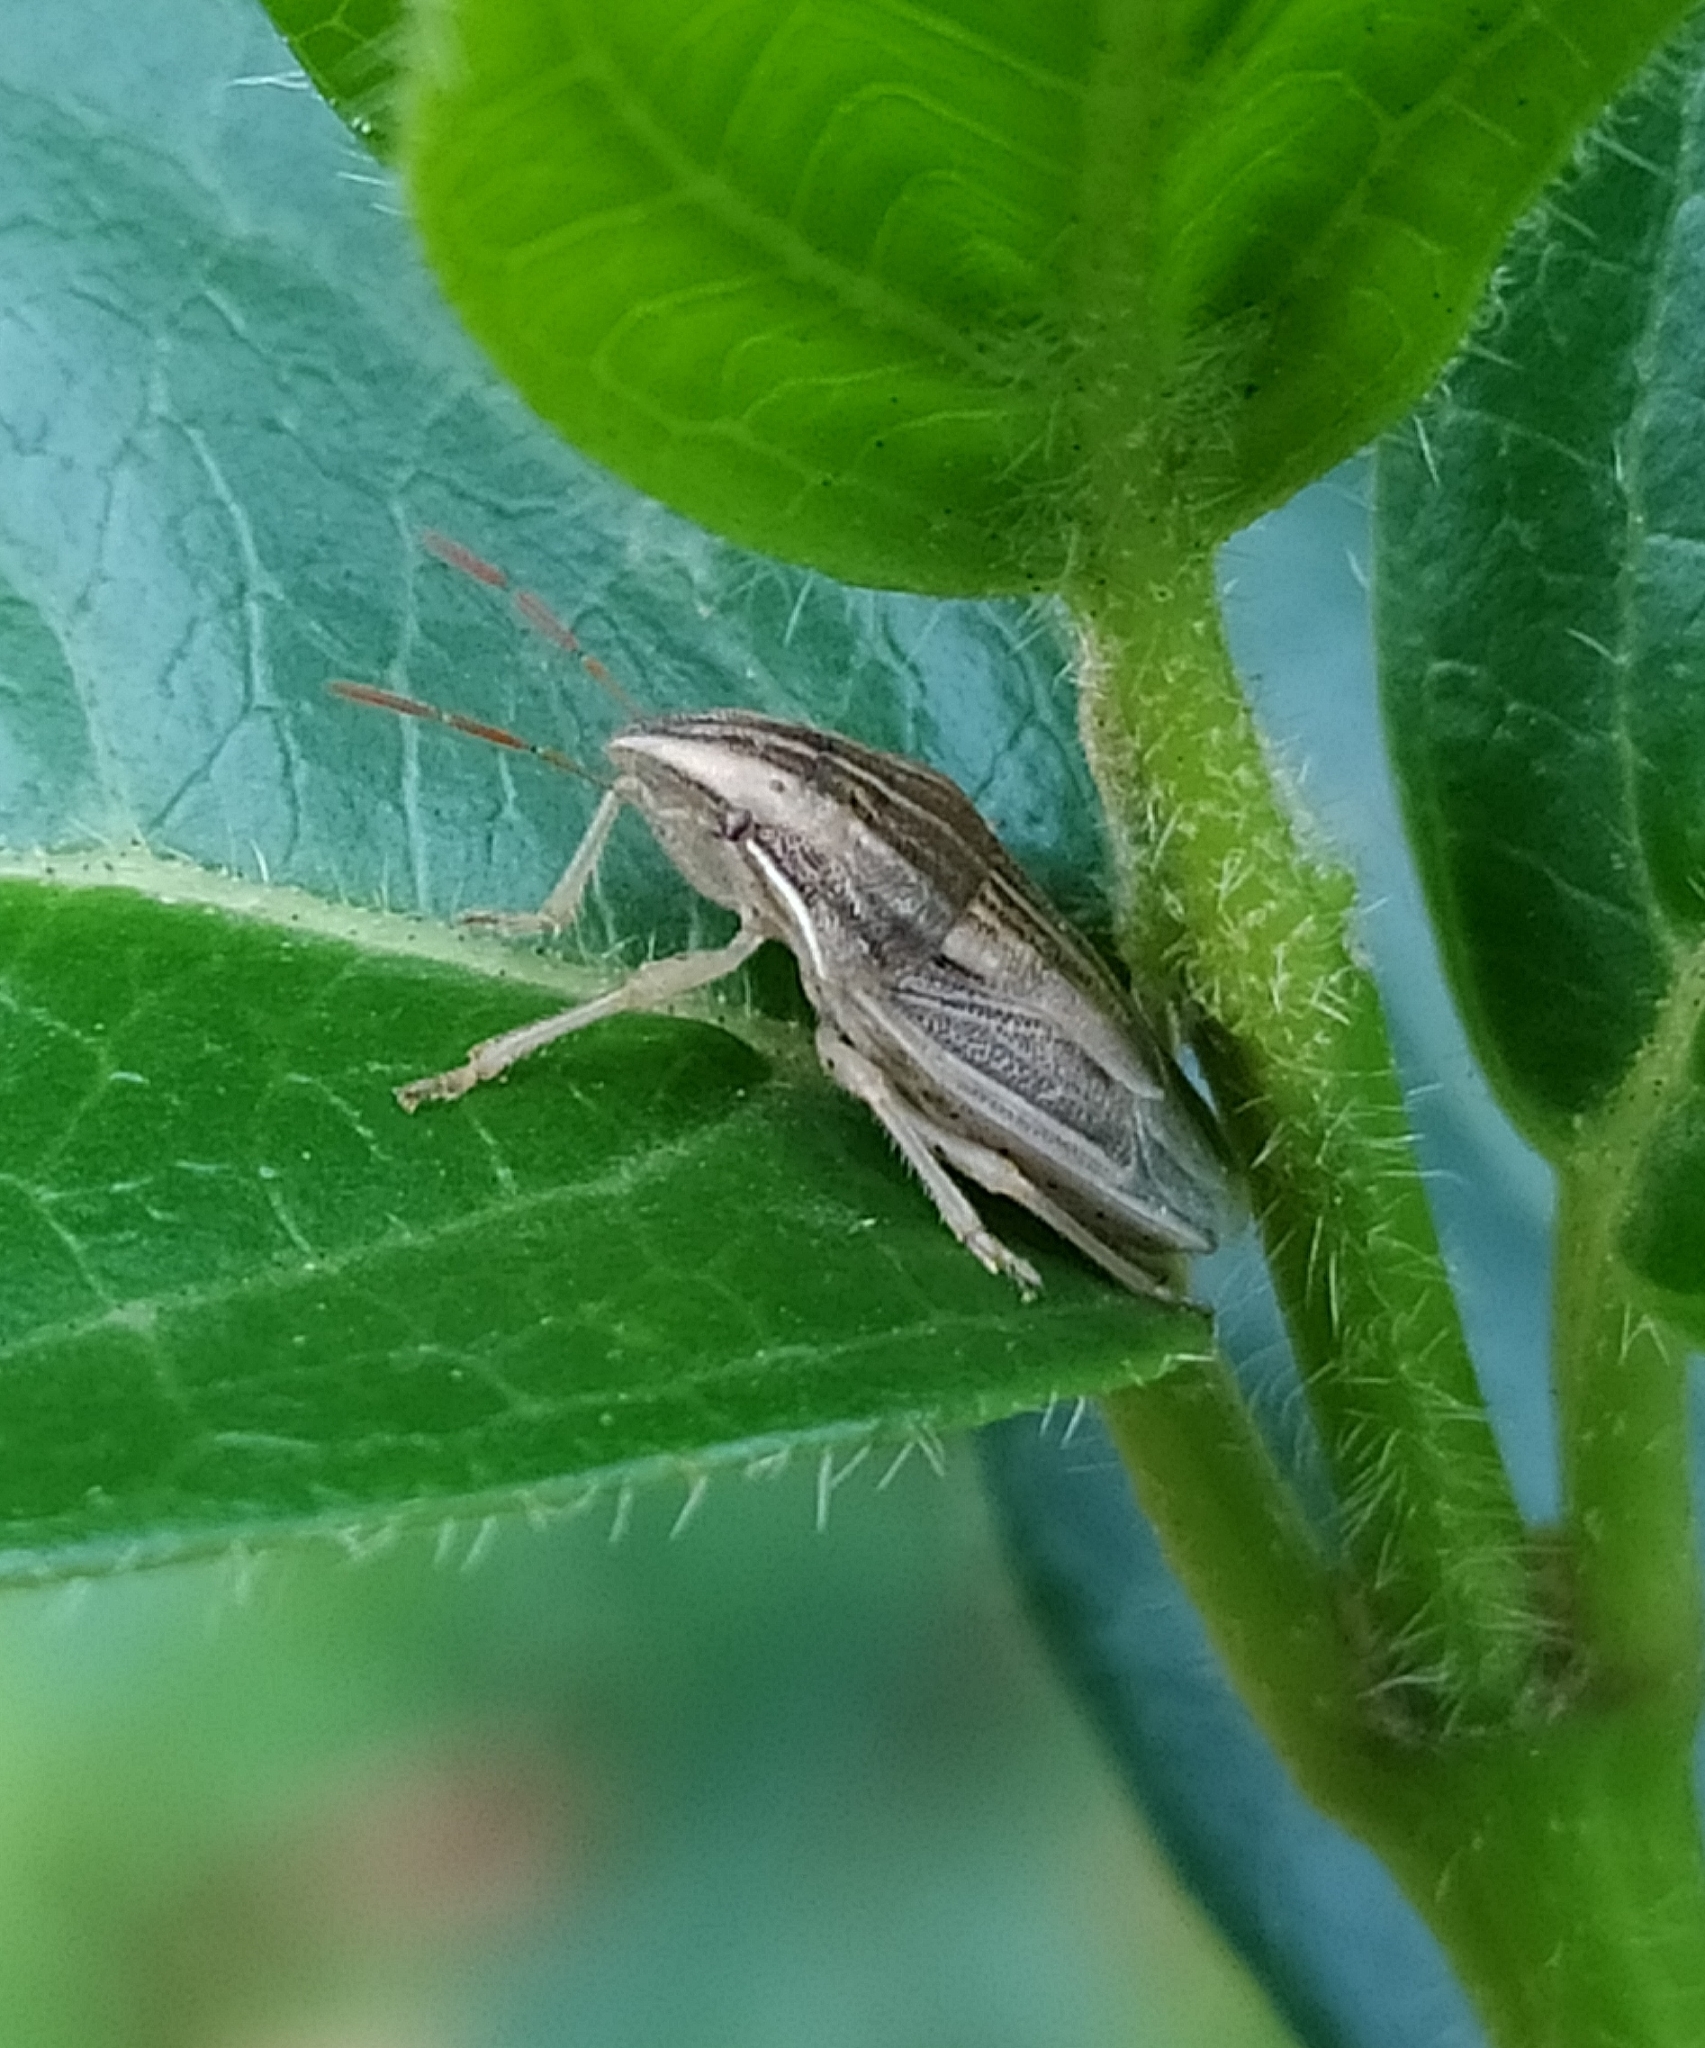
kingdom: Animalia
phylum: Arthropoda
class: Insecta
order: Hemiptera
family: Pentatomidae
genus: Aelia
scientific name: Aelia acuminata
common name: Bishop's mitre
